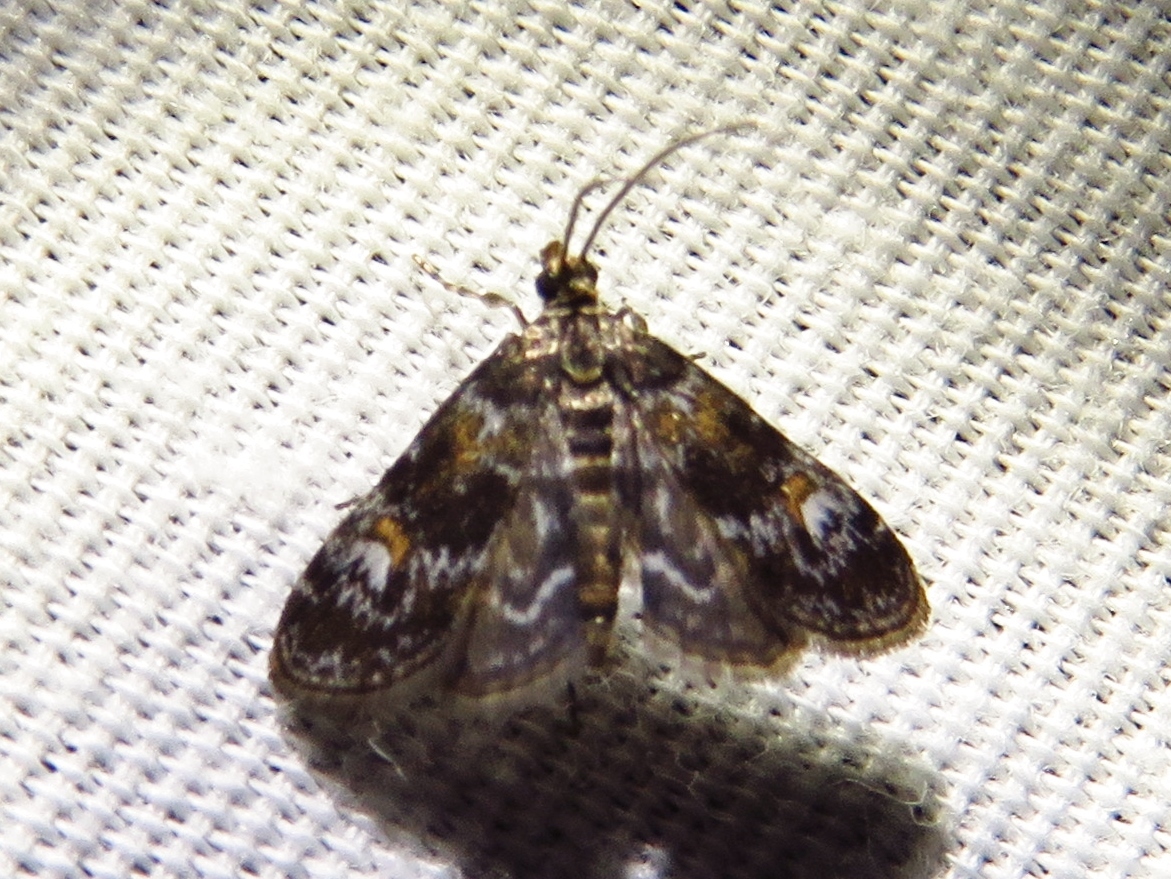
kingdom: Animalia
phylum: Arthropoda
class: Insecta
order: Lepidoptera
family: Crambidae
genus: Elophila
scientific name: Elophila obliteralis
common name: Waterlily leafcutter moth
